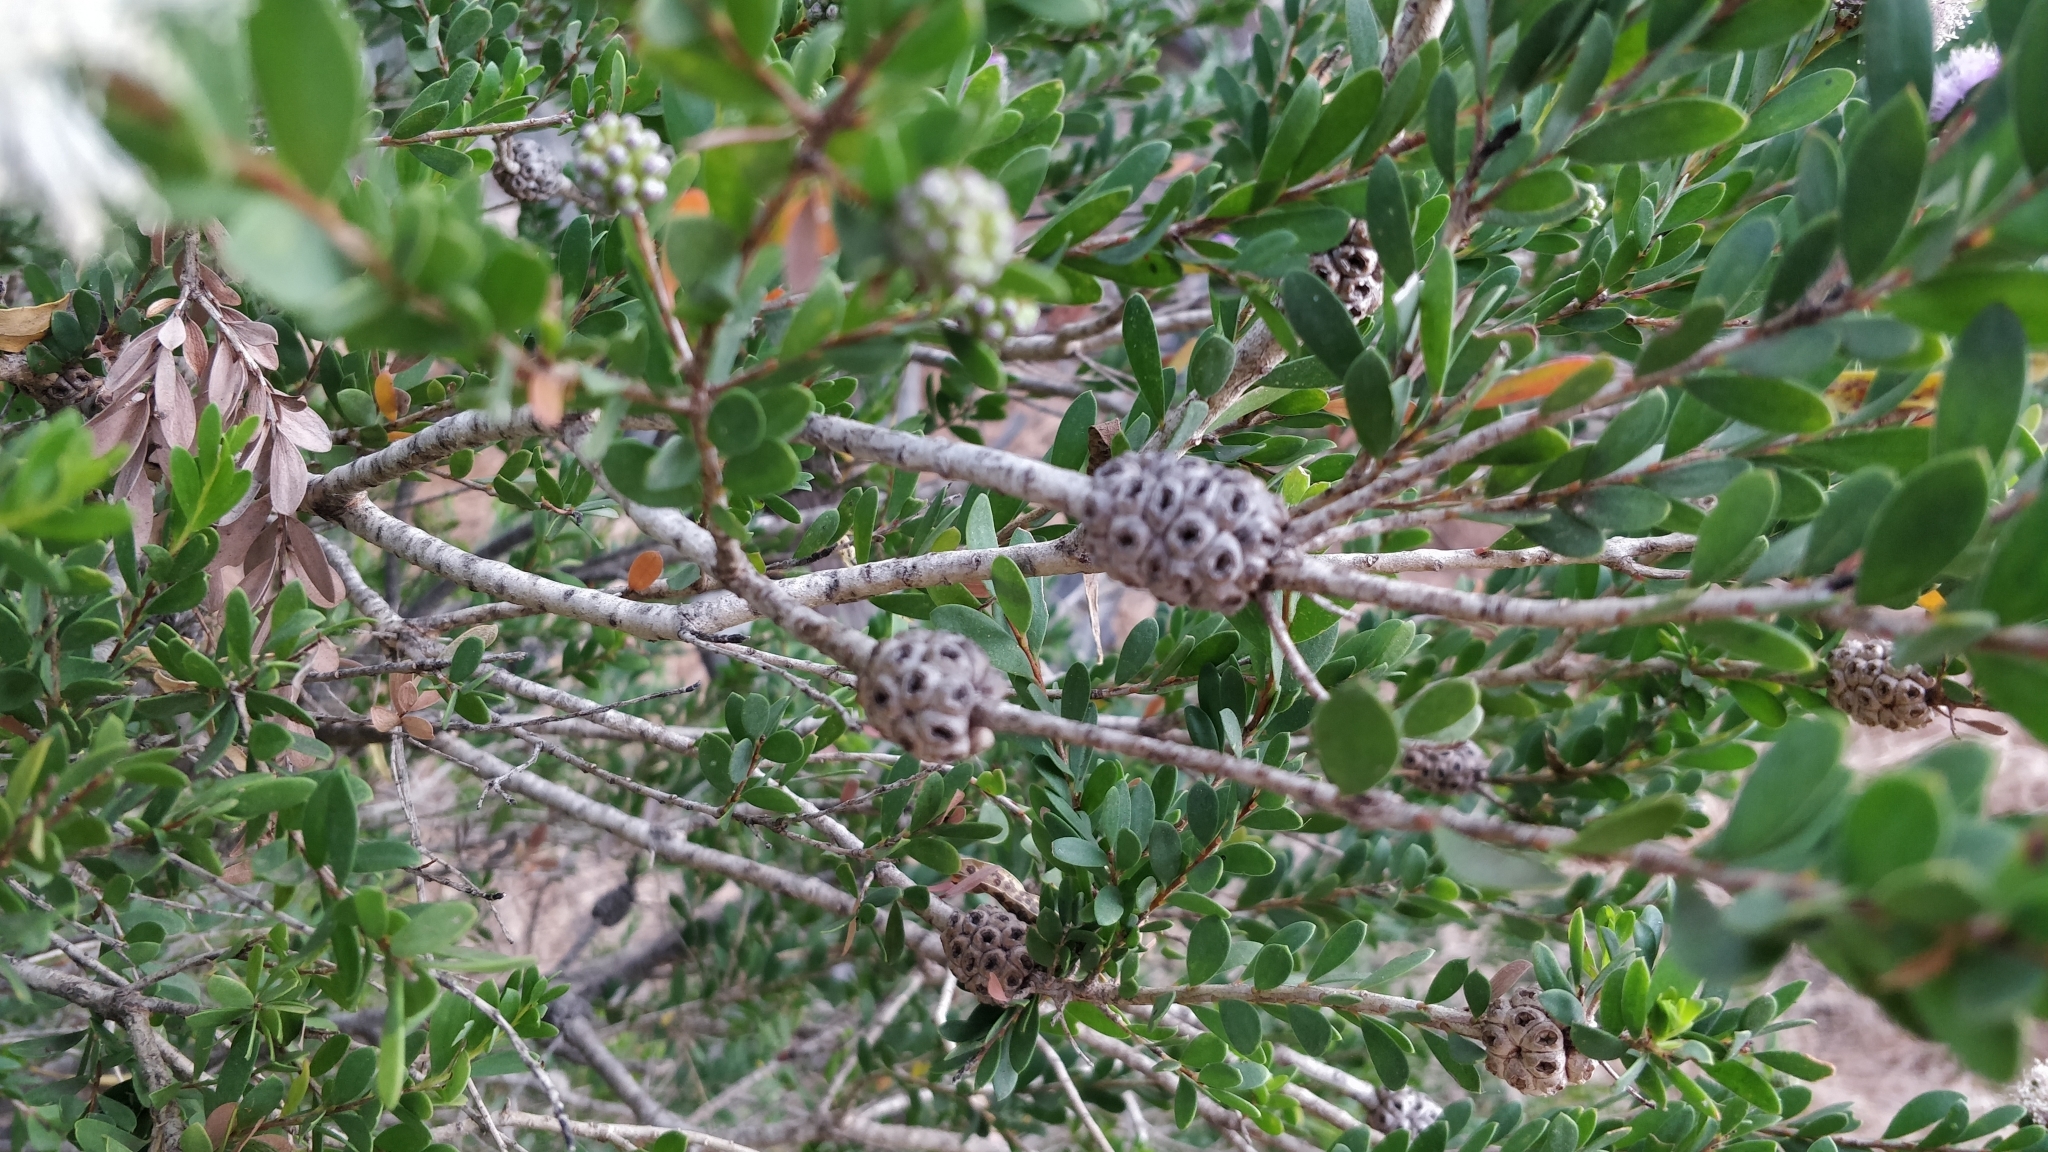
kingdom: Plantae
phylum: Tracheophyta
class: Magnoliopsida
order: Myrtales
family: Myrtaceae
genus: Melaleuca
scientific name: Melaleuca nesophila
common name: Mauve honey myrtle
